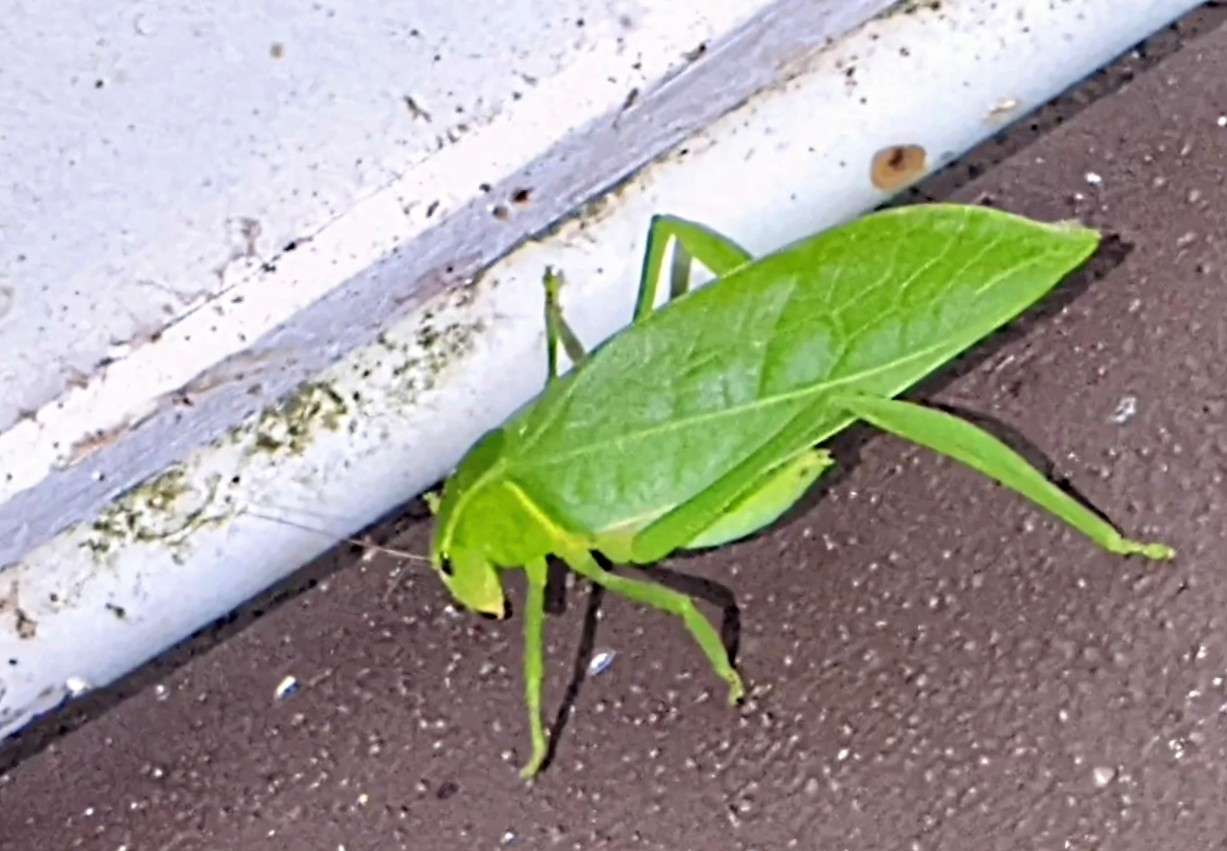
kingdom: Animalia
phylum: Arthropoda
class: Insecta
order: Orthoptera
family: Tettigoniidae
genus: Xantia
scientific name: Xantia borneensis
